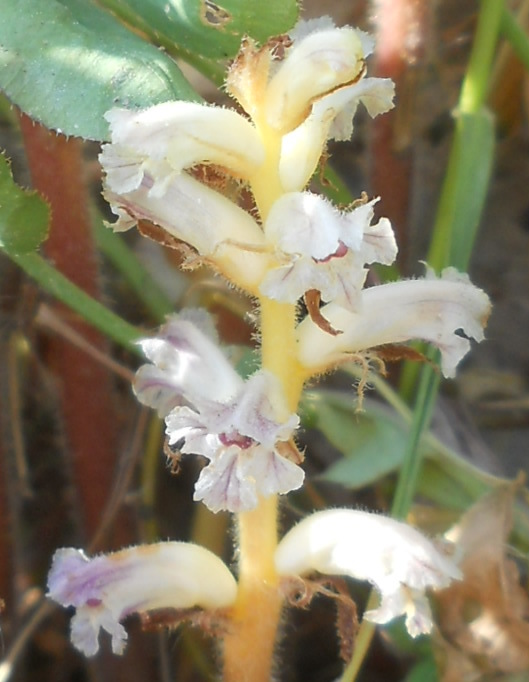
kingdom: Plantae
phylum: Tracheophyta
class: Magnoliopsida
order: Lamiales
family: Orobanchaceae
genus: Orobanche
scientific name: Orobanche minor
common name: Common broomrape
